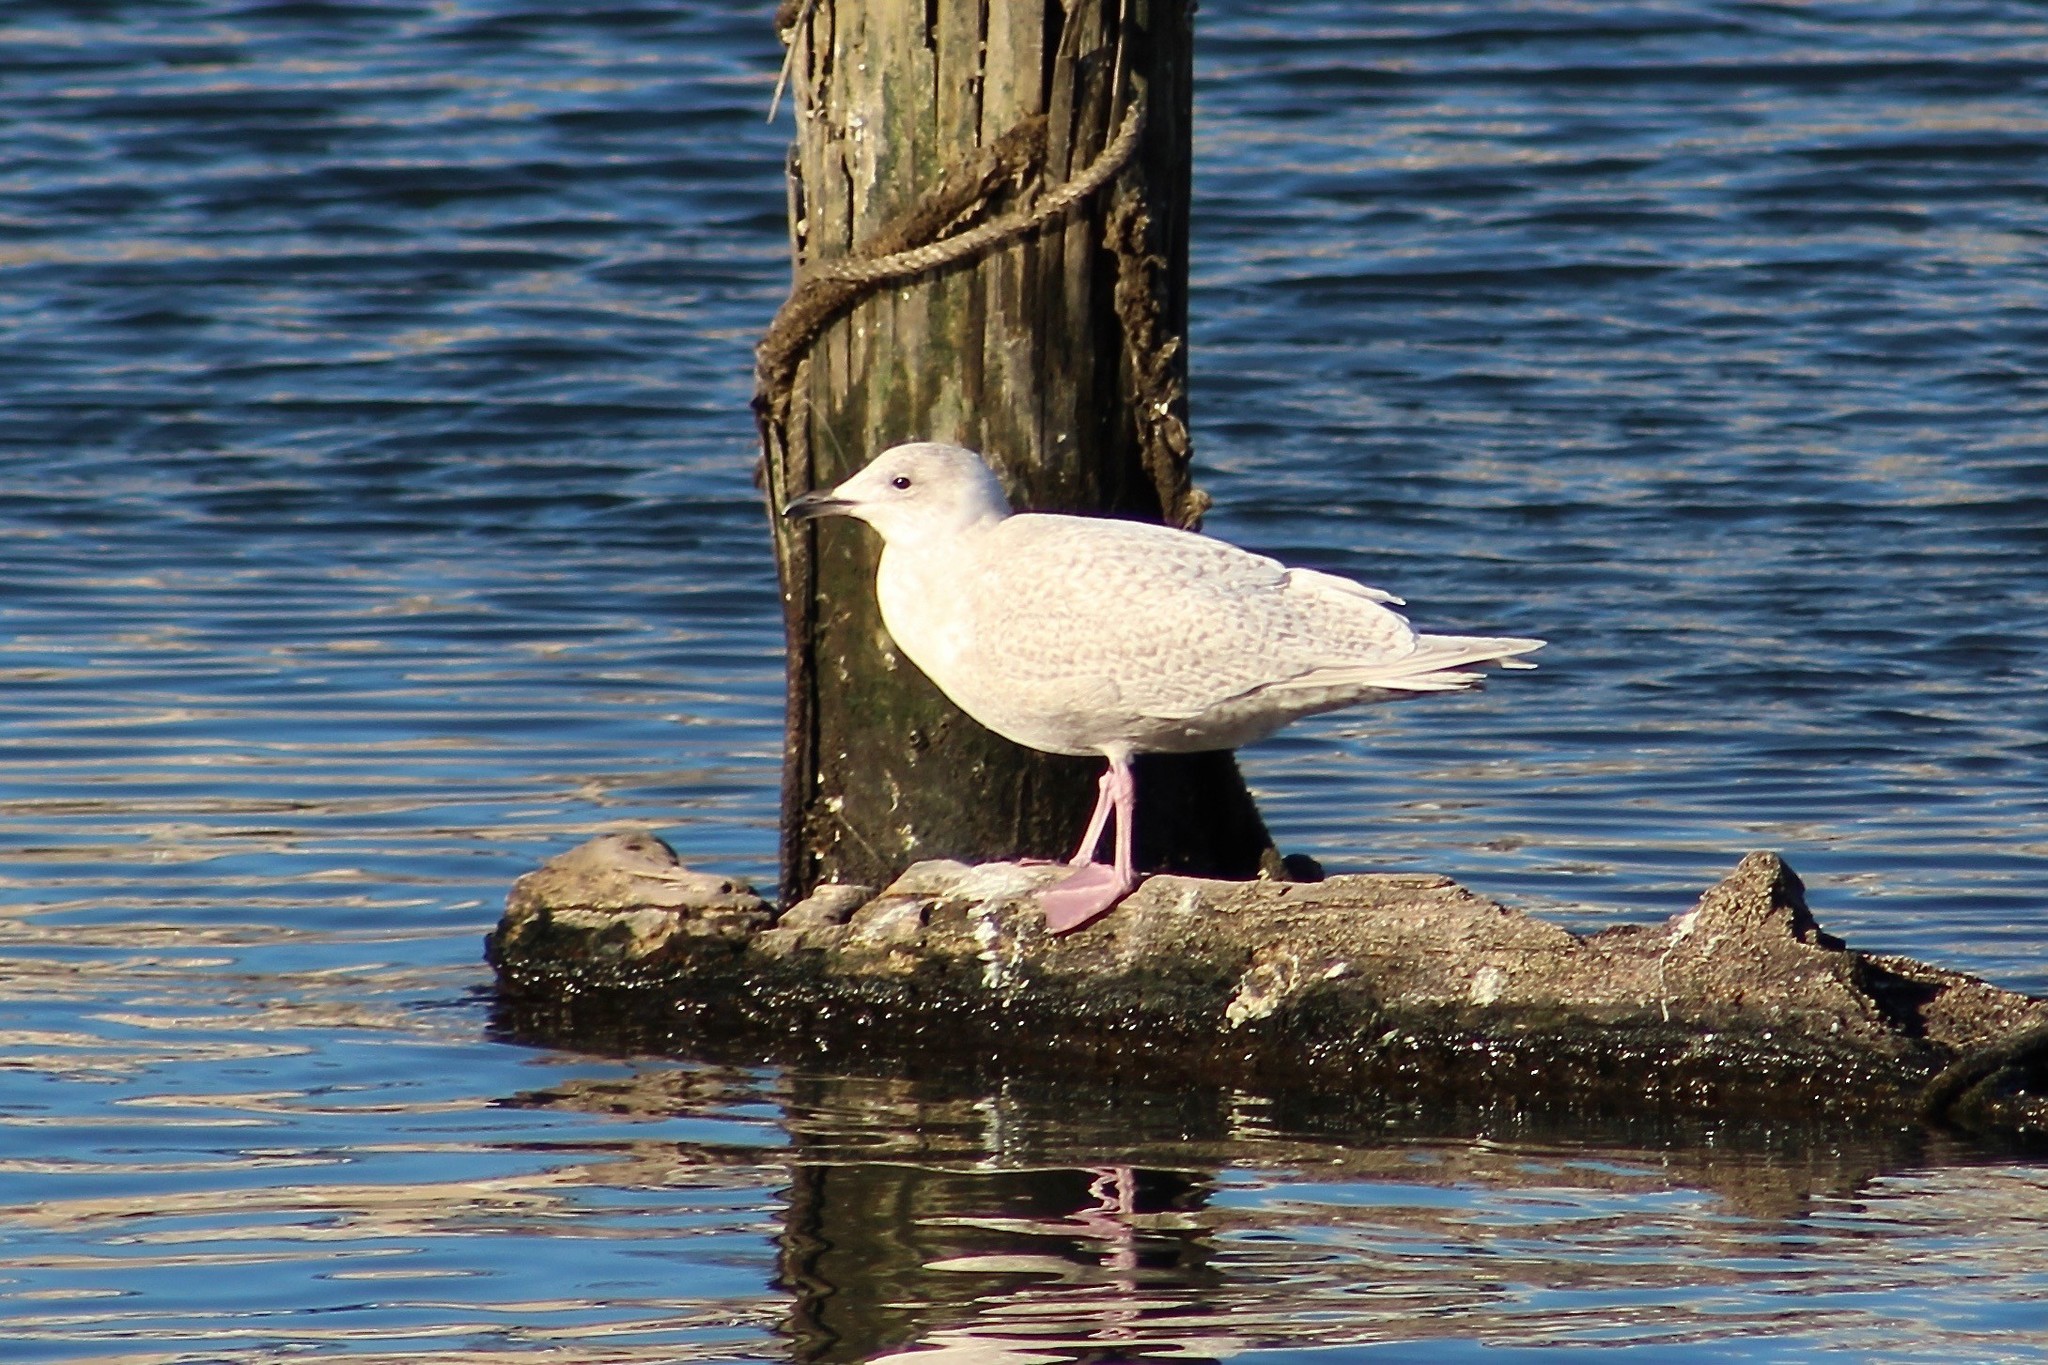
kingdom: Animalia
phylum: Chordata
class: Aves
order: Charadriiformes
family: Laridae
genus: Larus
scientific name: Larus glaucoides
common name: Iceland gull
